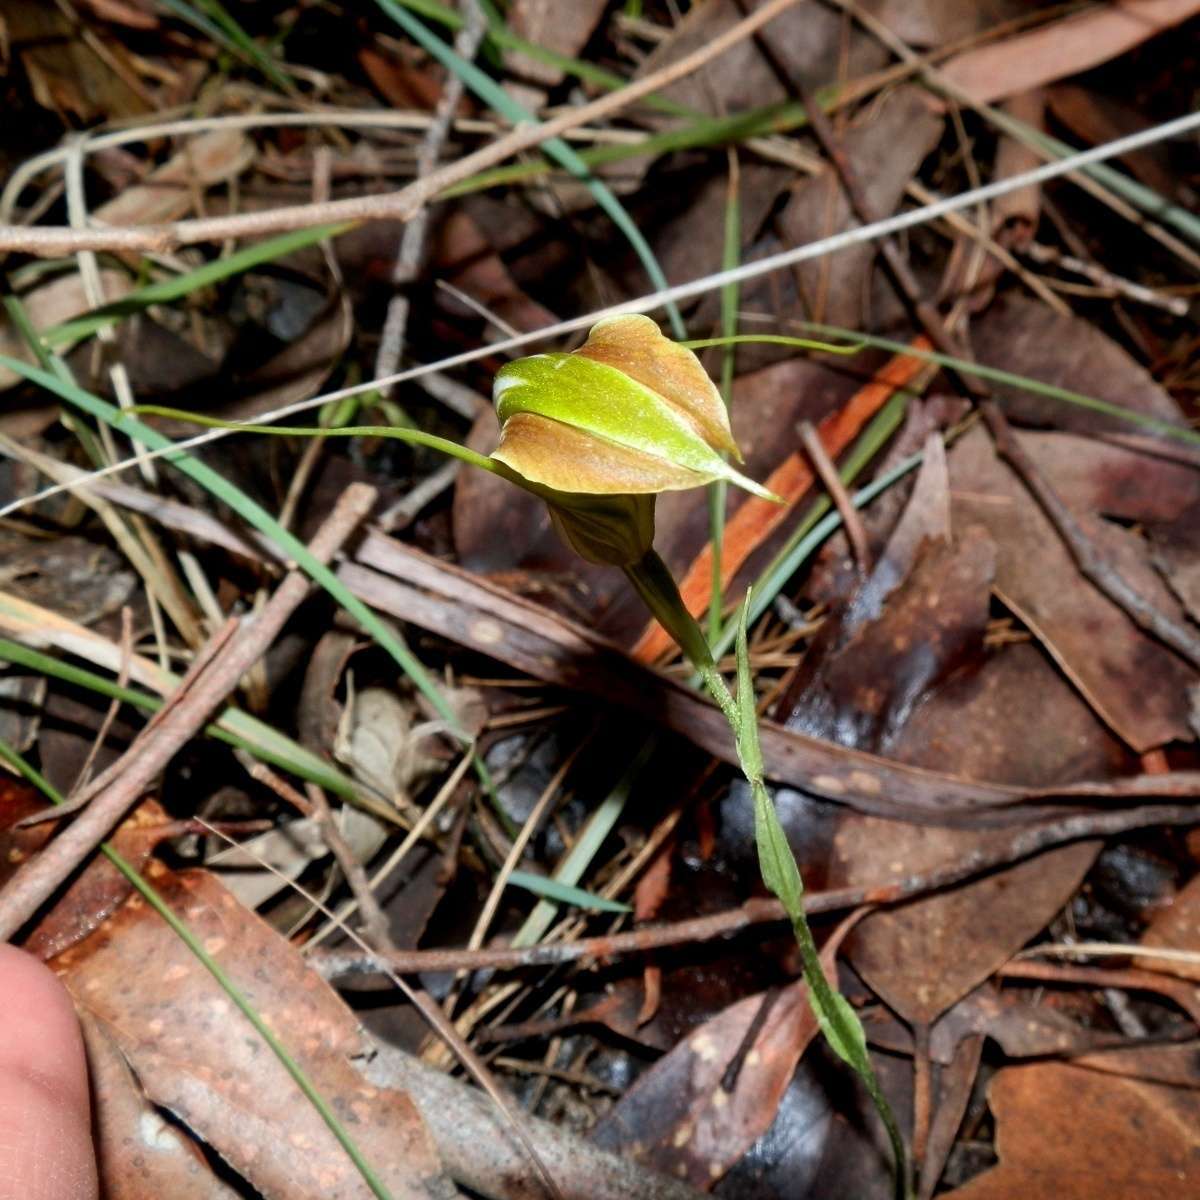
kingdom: Plantae
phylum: Tracheophyta
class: Liliopsida
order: Asparagales
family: Orchidaceae
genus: Pterostylis
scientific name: Pterostylis grandiflora
